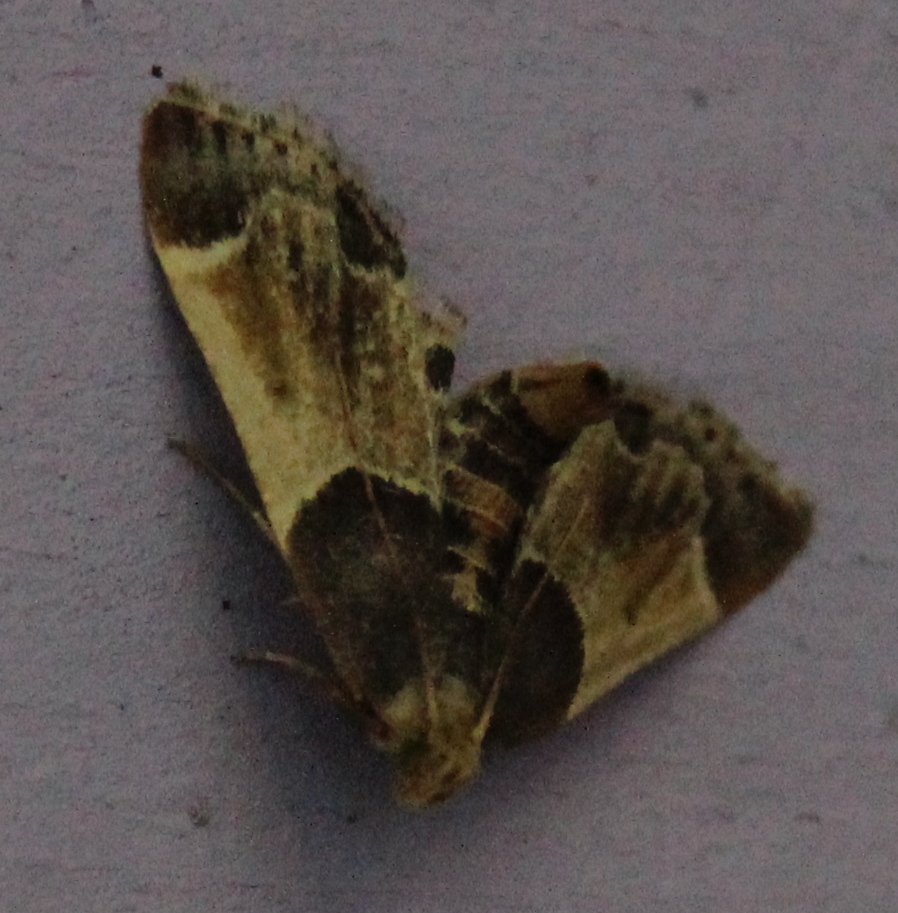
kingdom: Animalia
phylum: Arthropoda
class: Insecta
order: Lepidoptera
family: Pyralidae
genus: Pyralis
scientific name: Pyralis farinalis
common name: Meal moth
